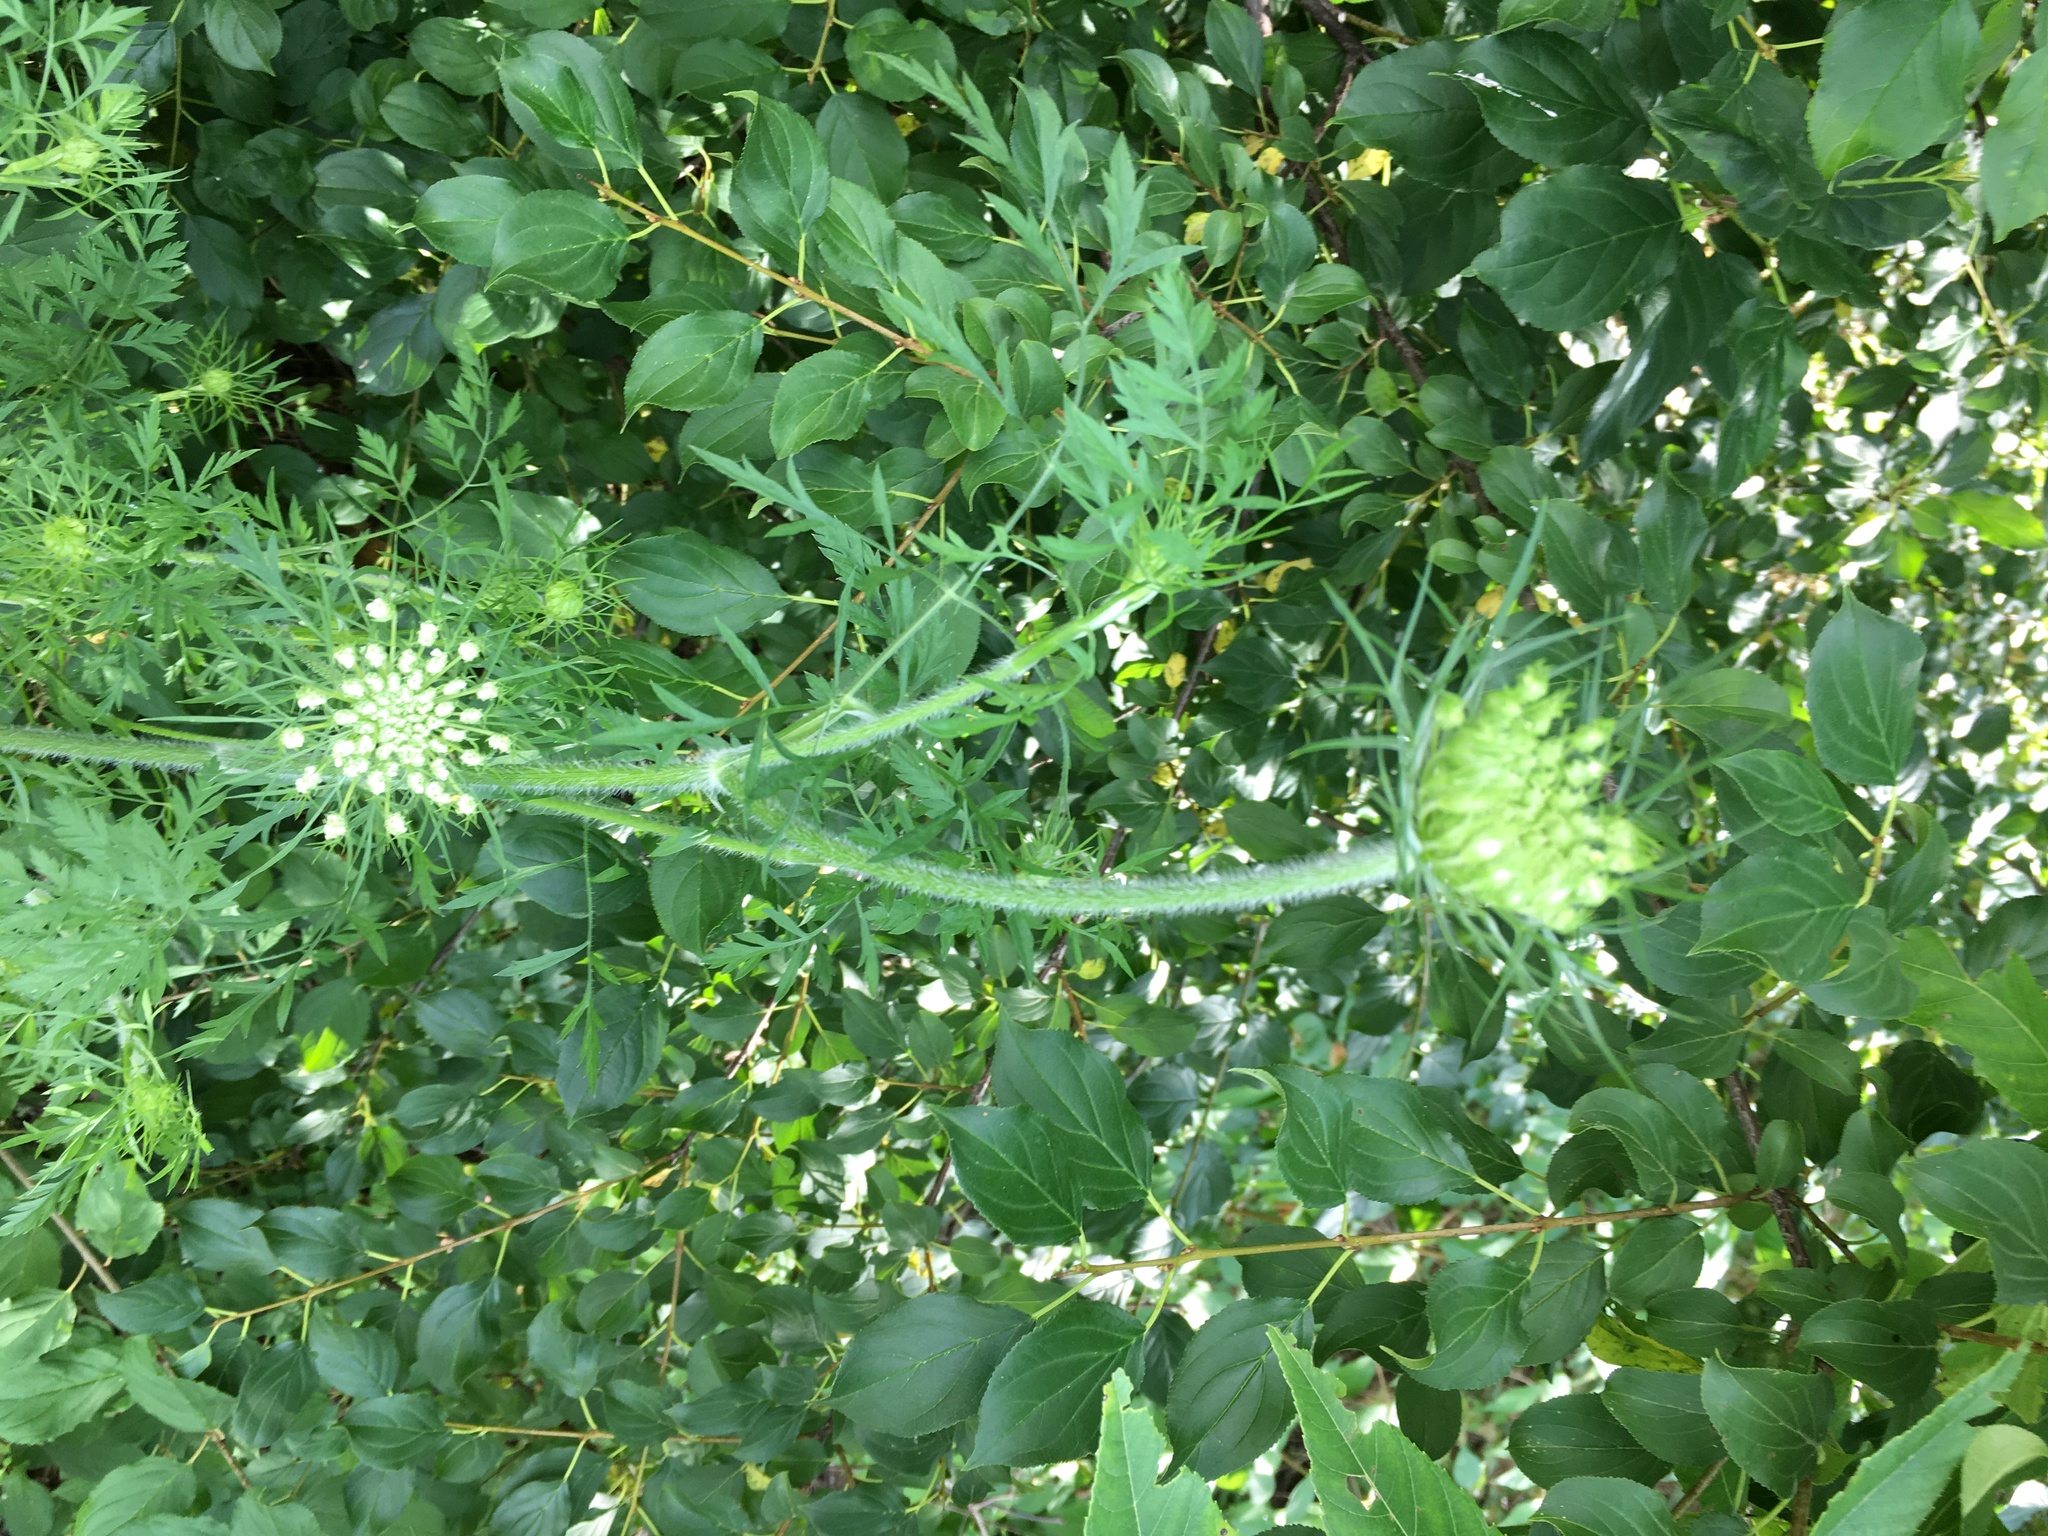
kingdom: Plantae
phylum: Tracheophyta
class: Magnoliopsida
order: Apiales
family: Apiaceae
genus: Daucus
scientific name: Daucus carota
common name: Wild carrot
